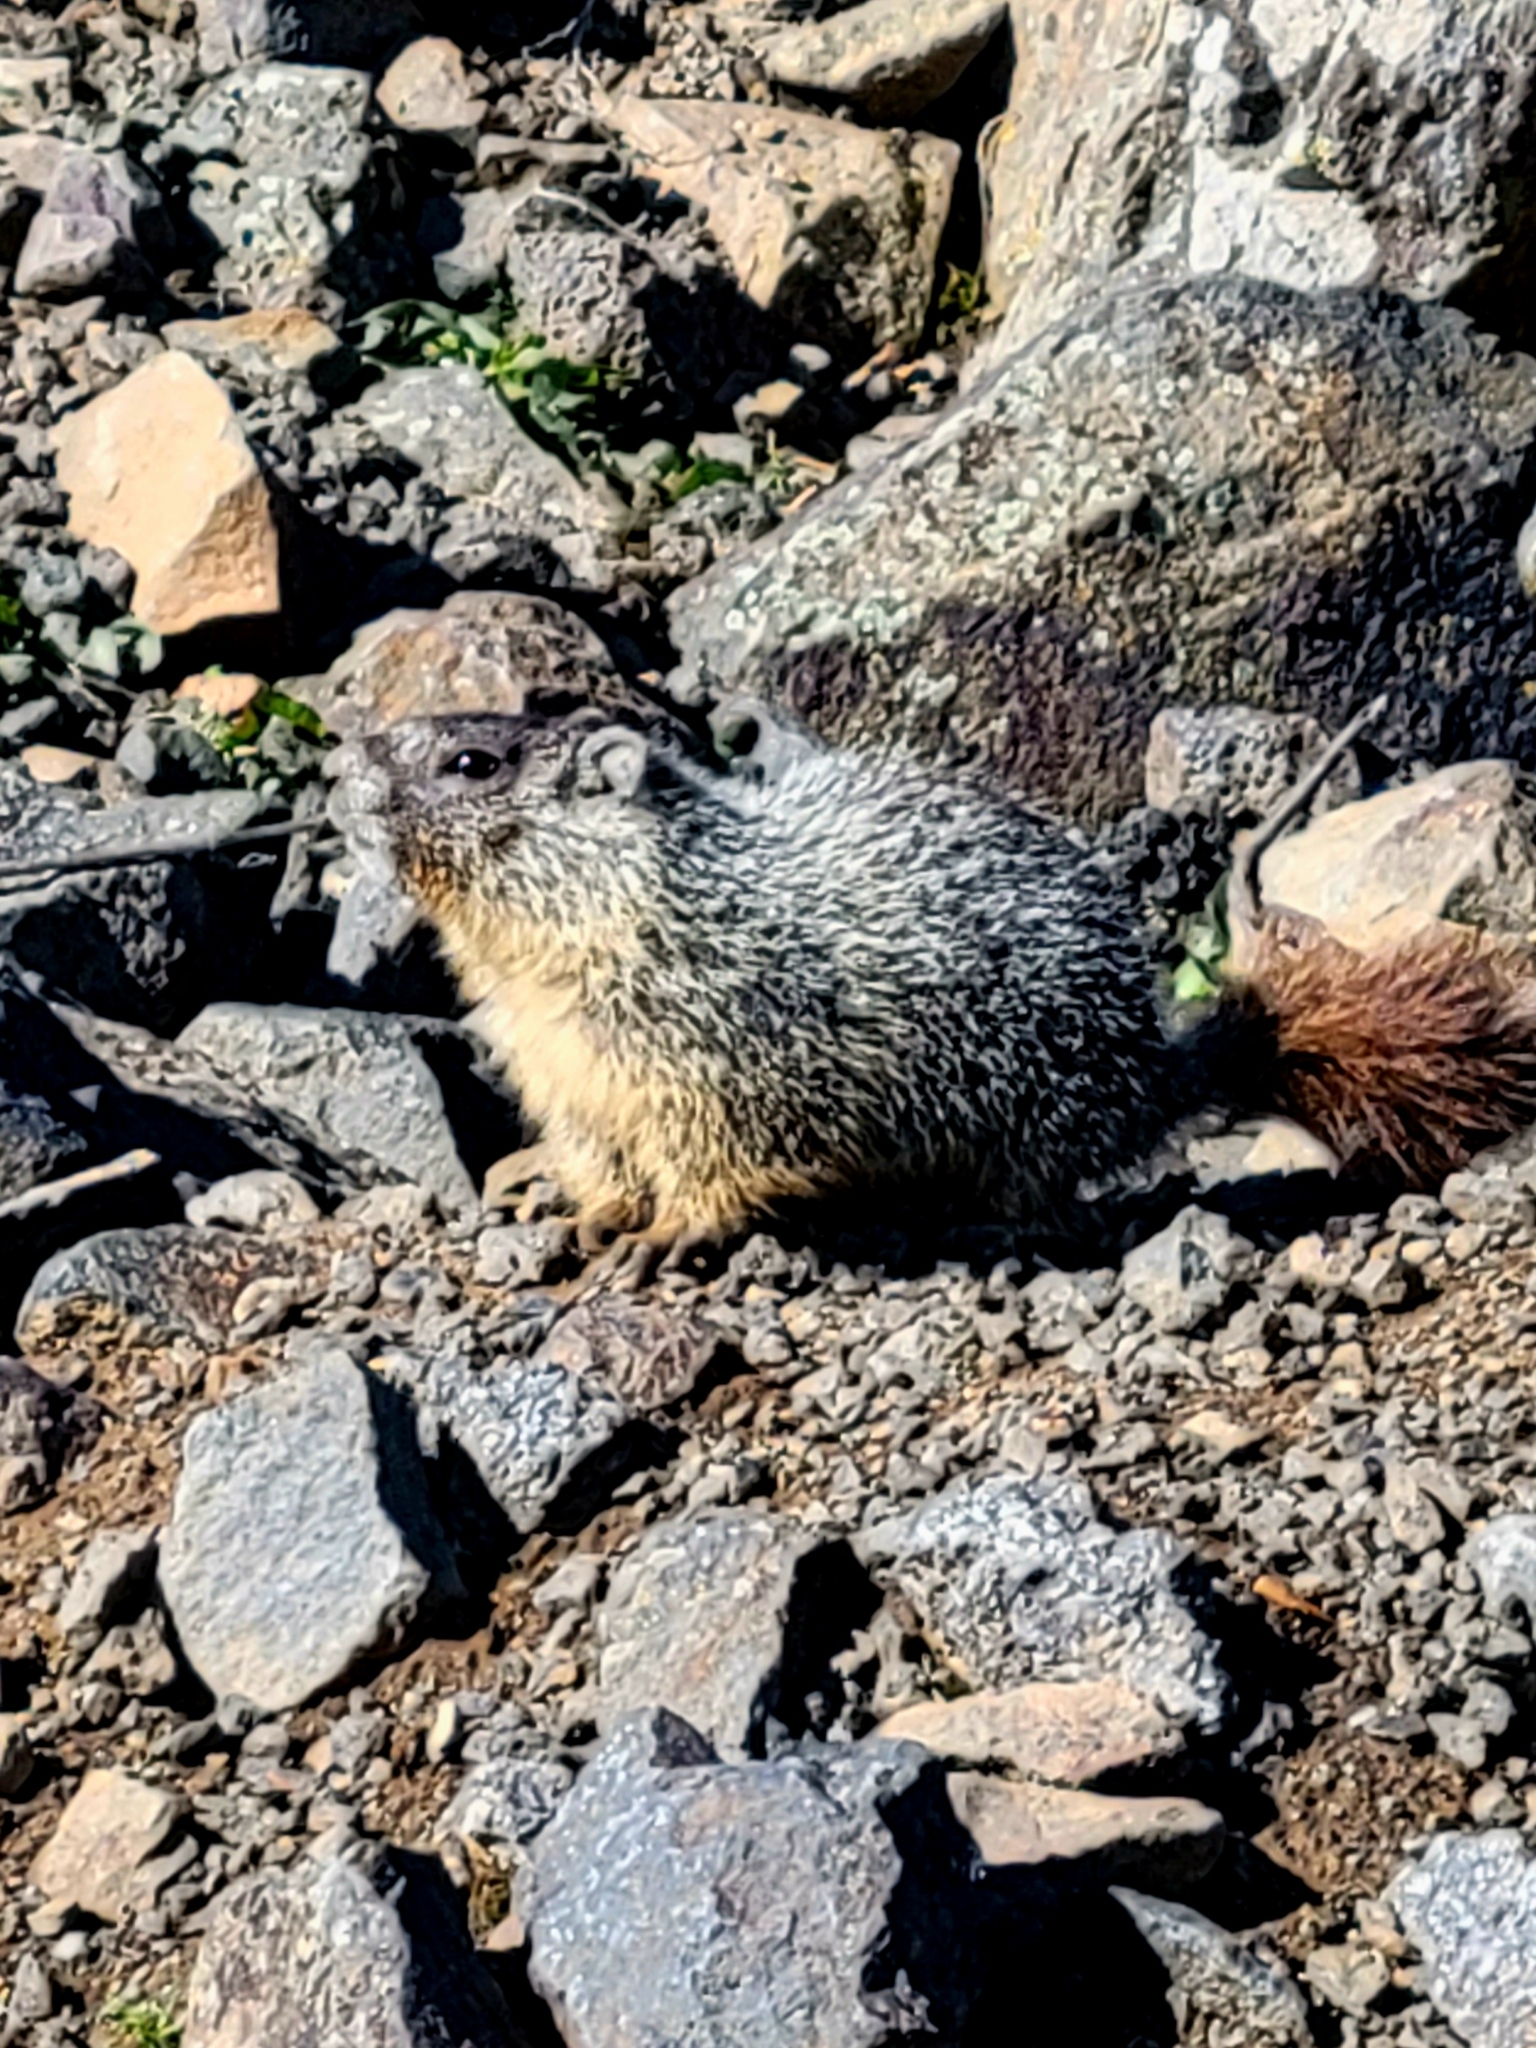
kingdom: Animalia
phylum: Chordata
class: Mammalia
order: Rodentia
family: Sciuridae
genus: Marmota
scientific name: Marmota flaviventris
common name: Yellow-bellied marmot
